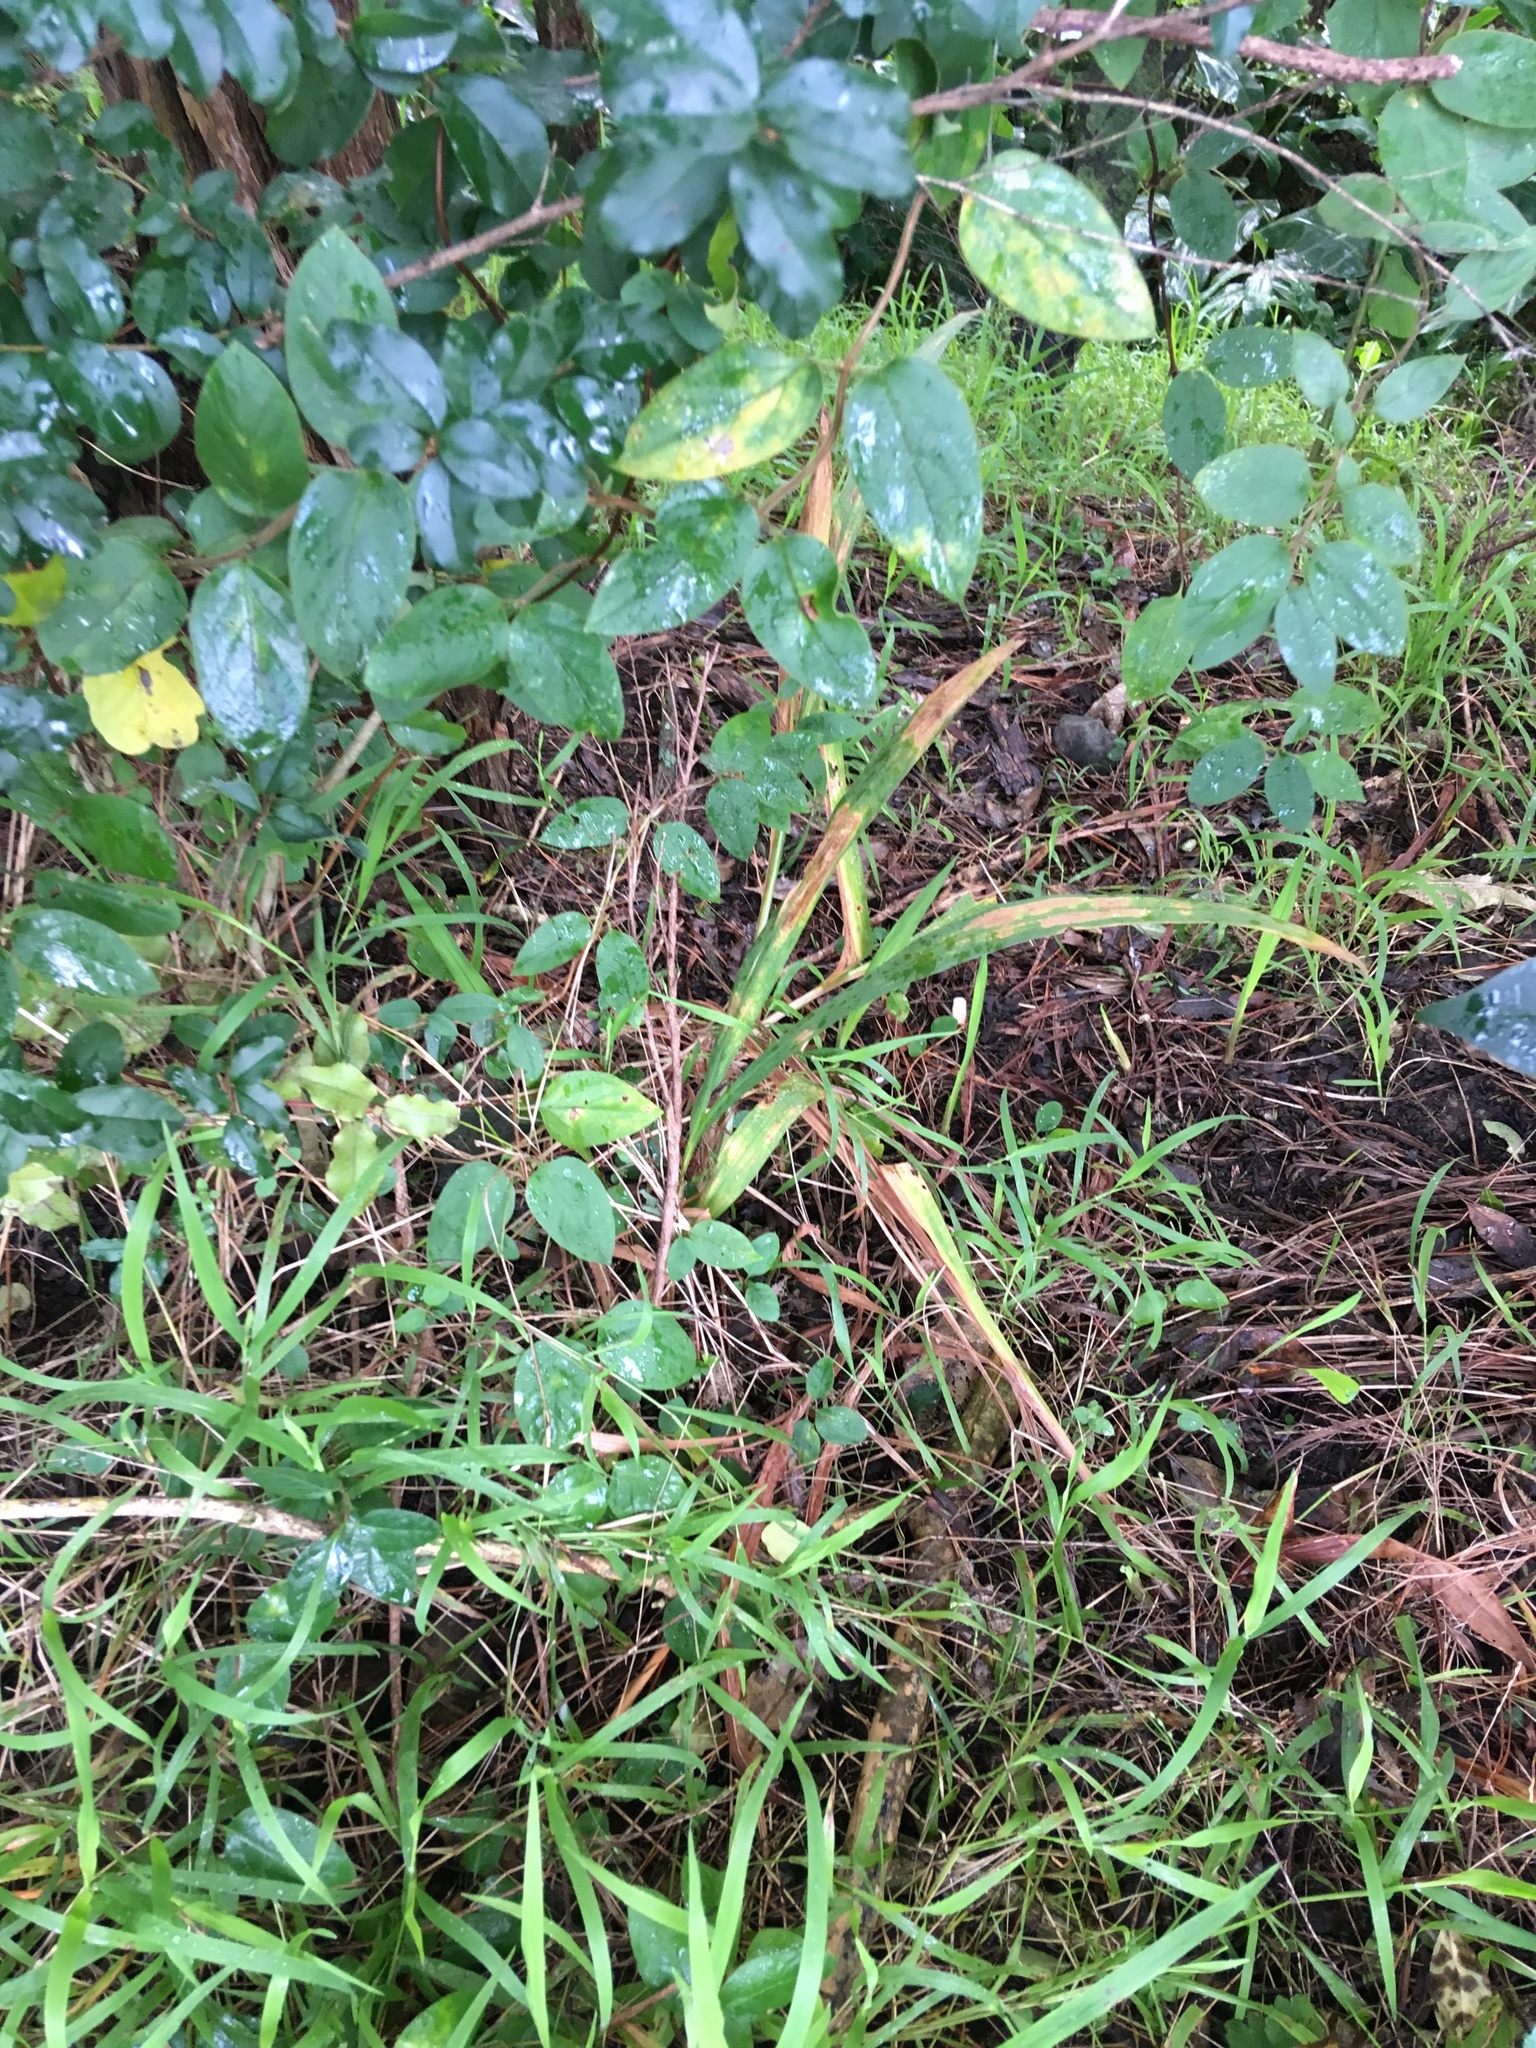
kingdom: Plantae
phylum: Tracheophyta
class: Magnoliopsida
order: Dipsacales
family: Caprifoliaceae
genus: Lonicera
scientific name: Lonicera japonica
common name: Japanese honeysuckle
